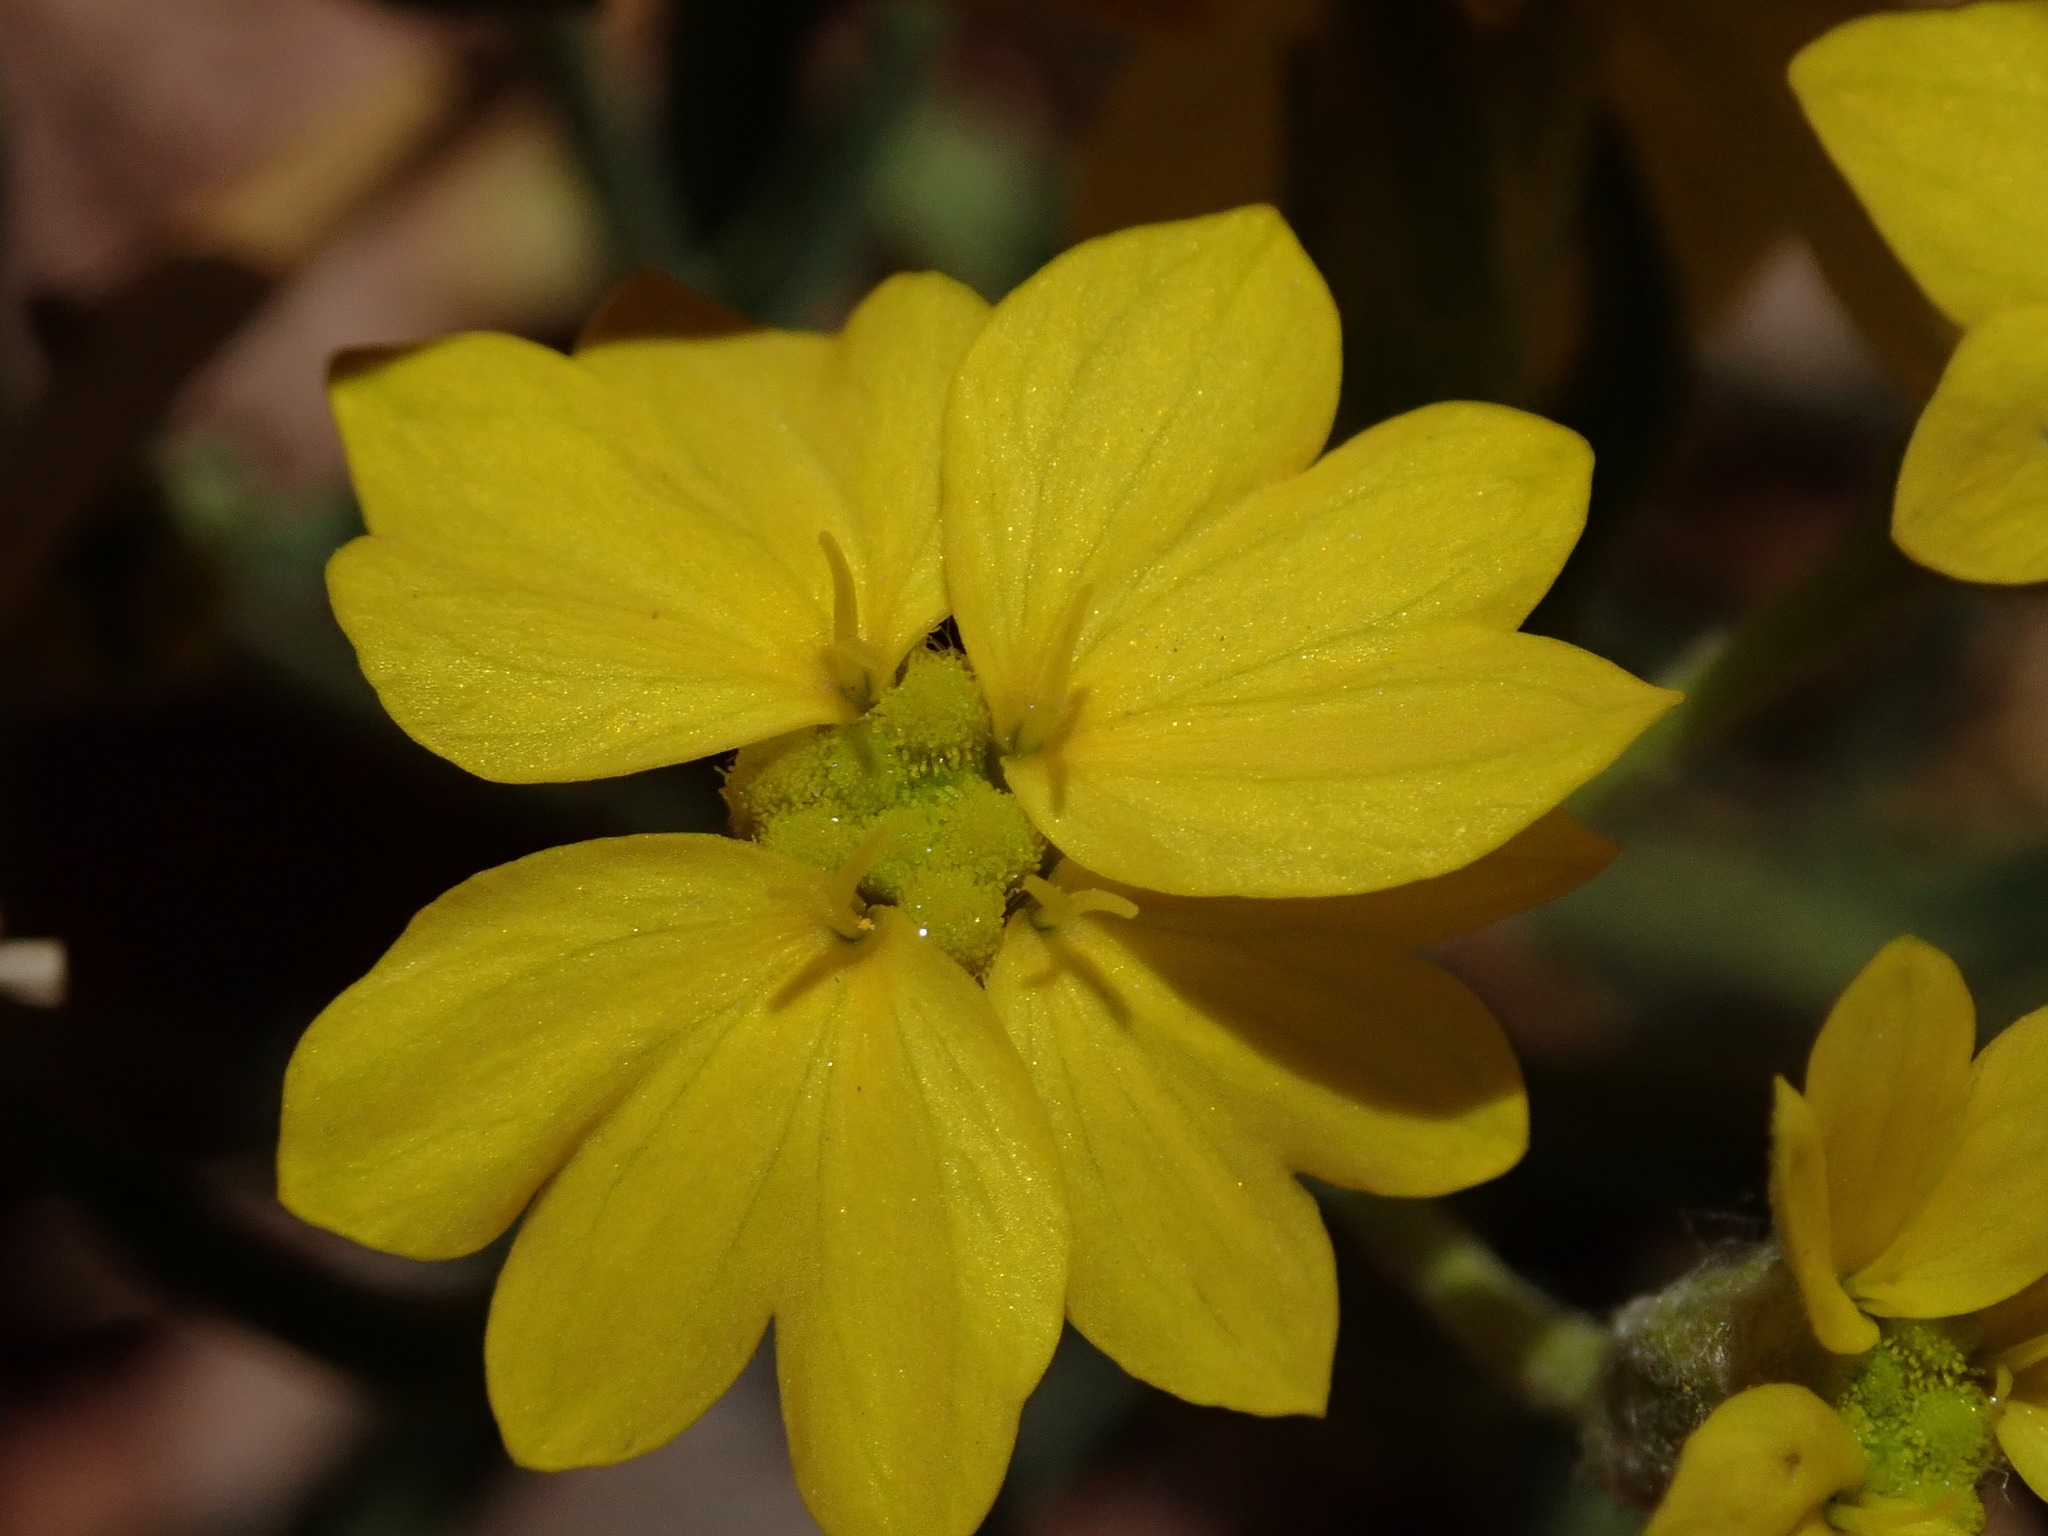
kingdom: Plantae
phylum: Tracheophyta
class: Magnoliopsida
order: Asterales
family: Asteraceae
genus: Psilostrophe
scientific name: Psilostrophe sparsiflora
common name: Green-stem paper-flower
